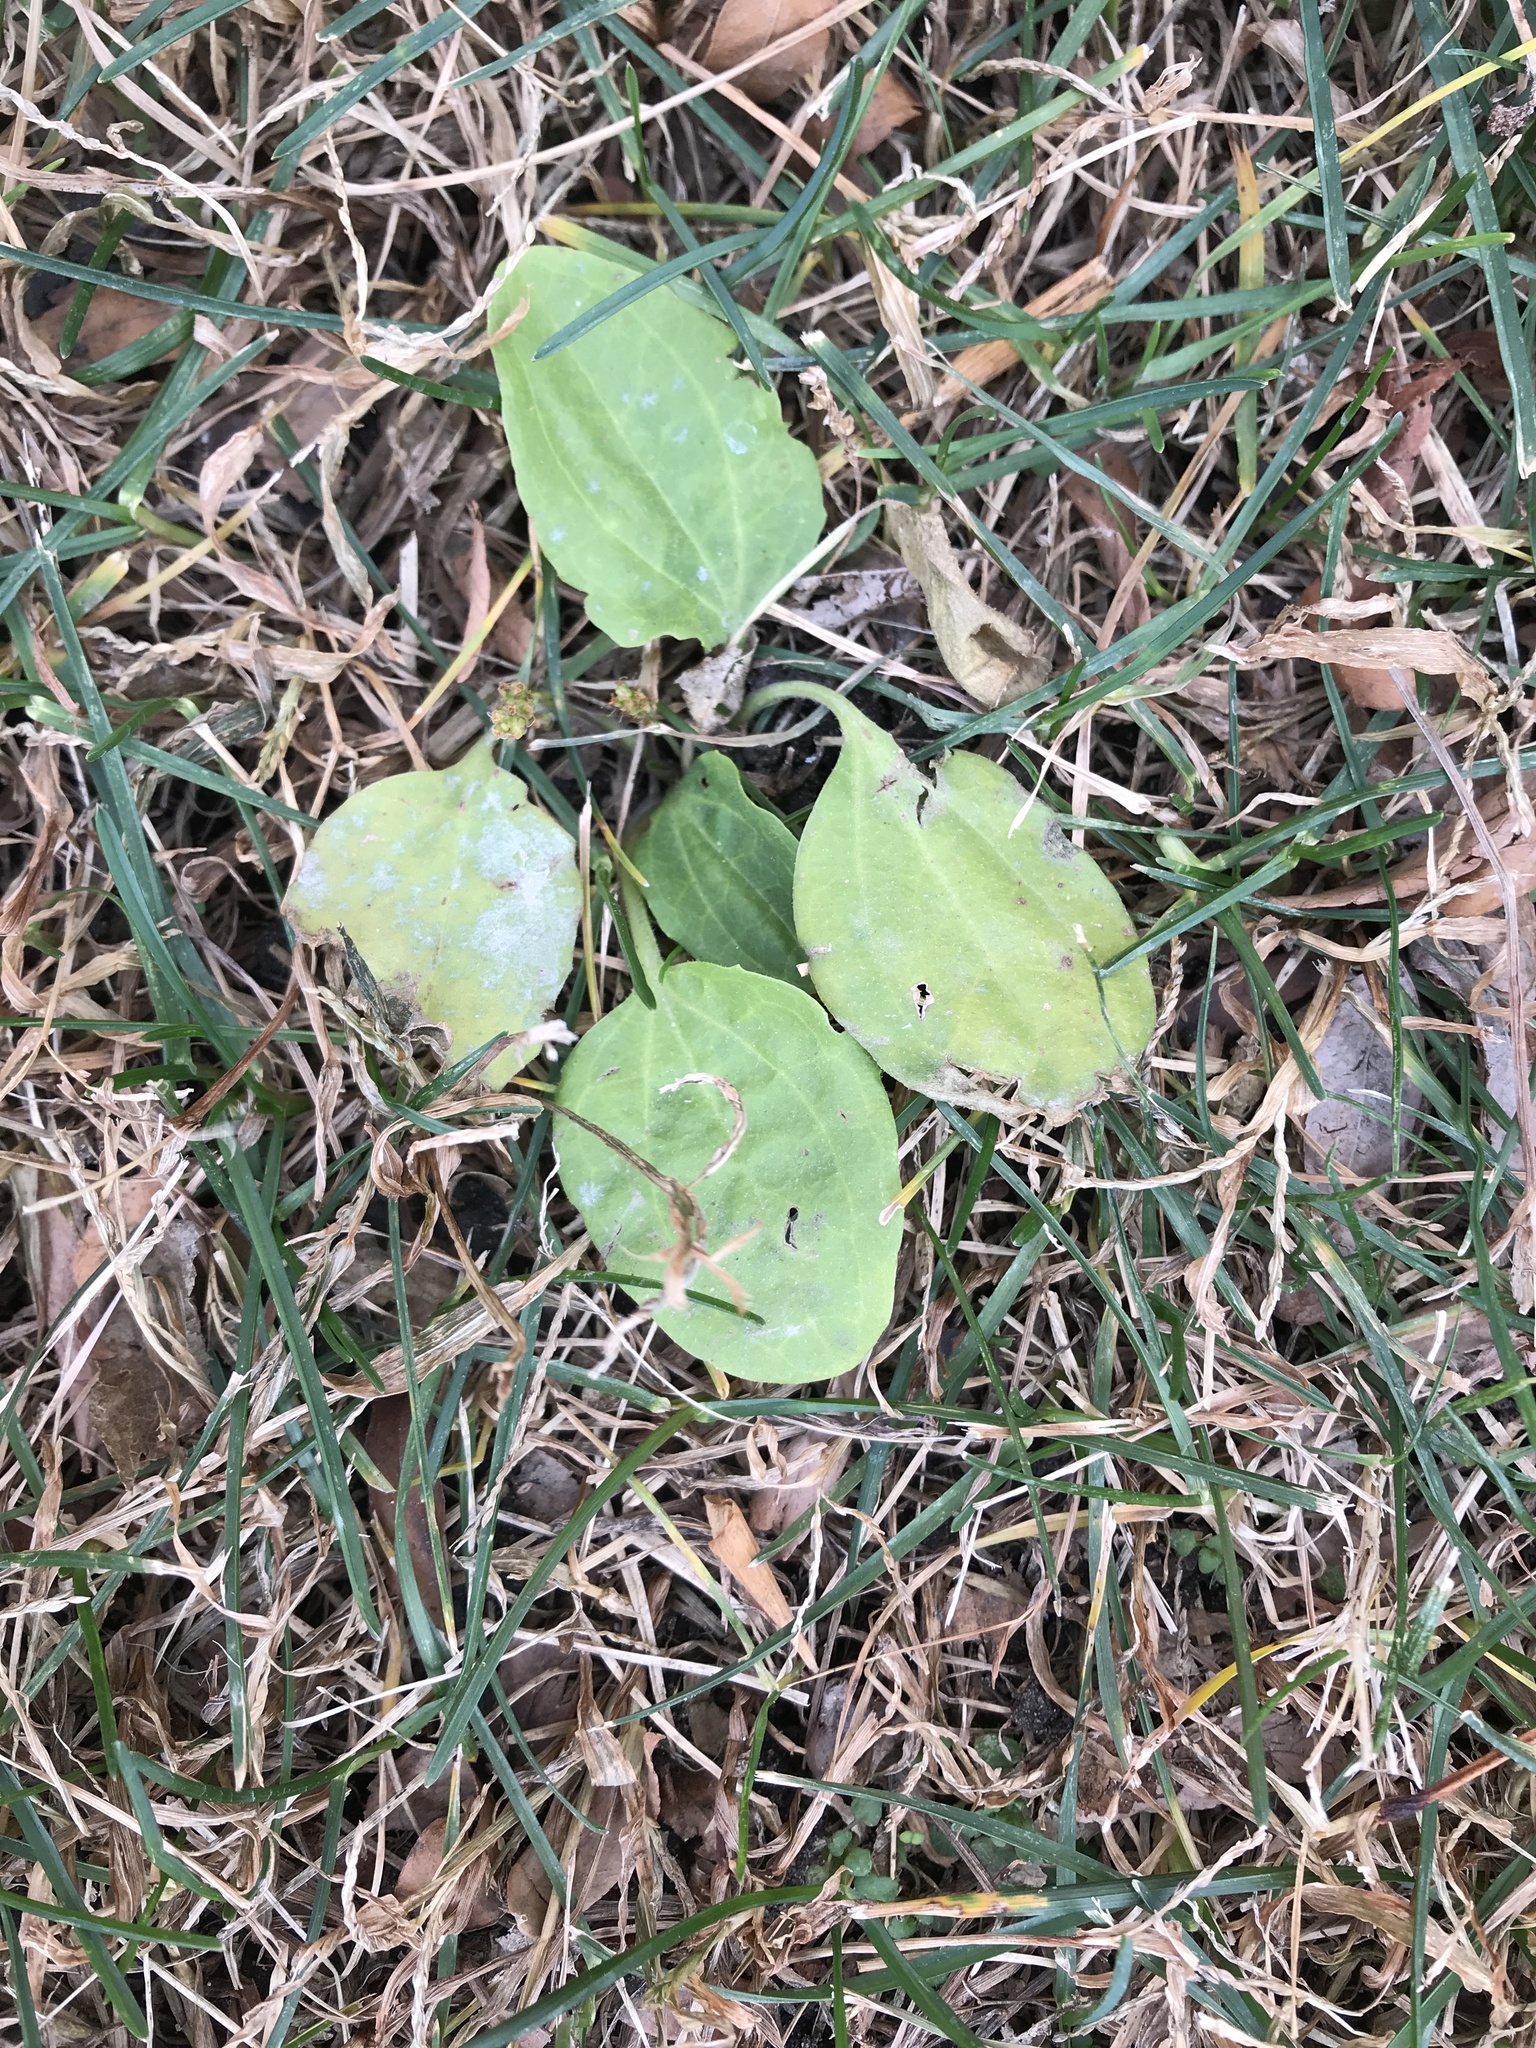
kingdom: Plantae
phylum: Tracheophyta
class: Magnoliopsida
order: Lamiales
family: Plantaginaceae
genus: Plantago
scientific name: Plantago major
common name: Common plantain
